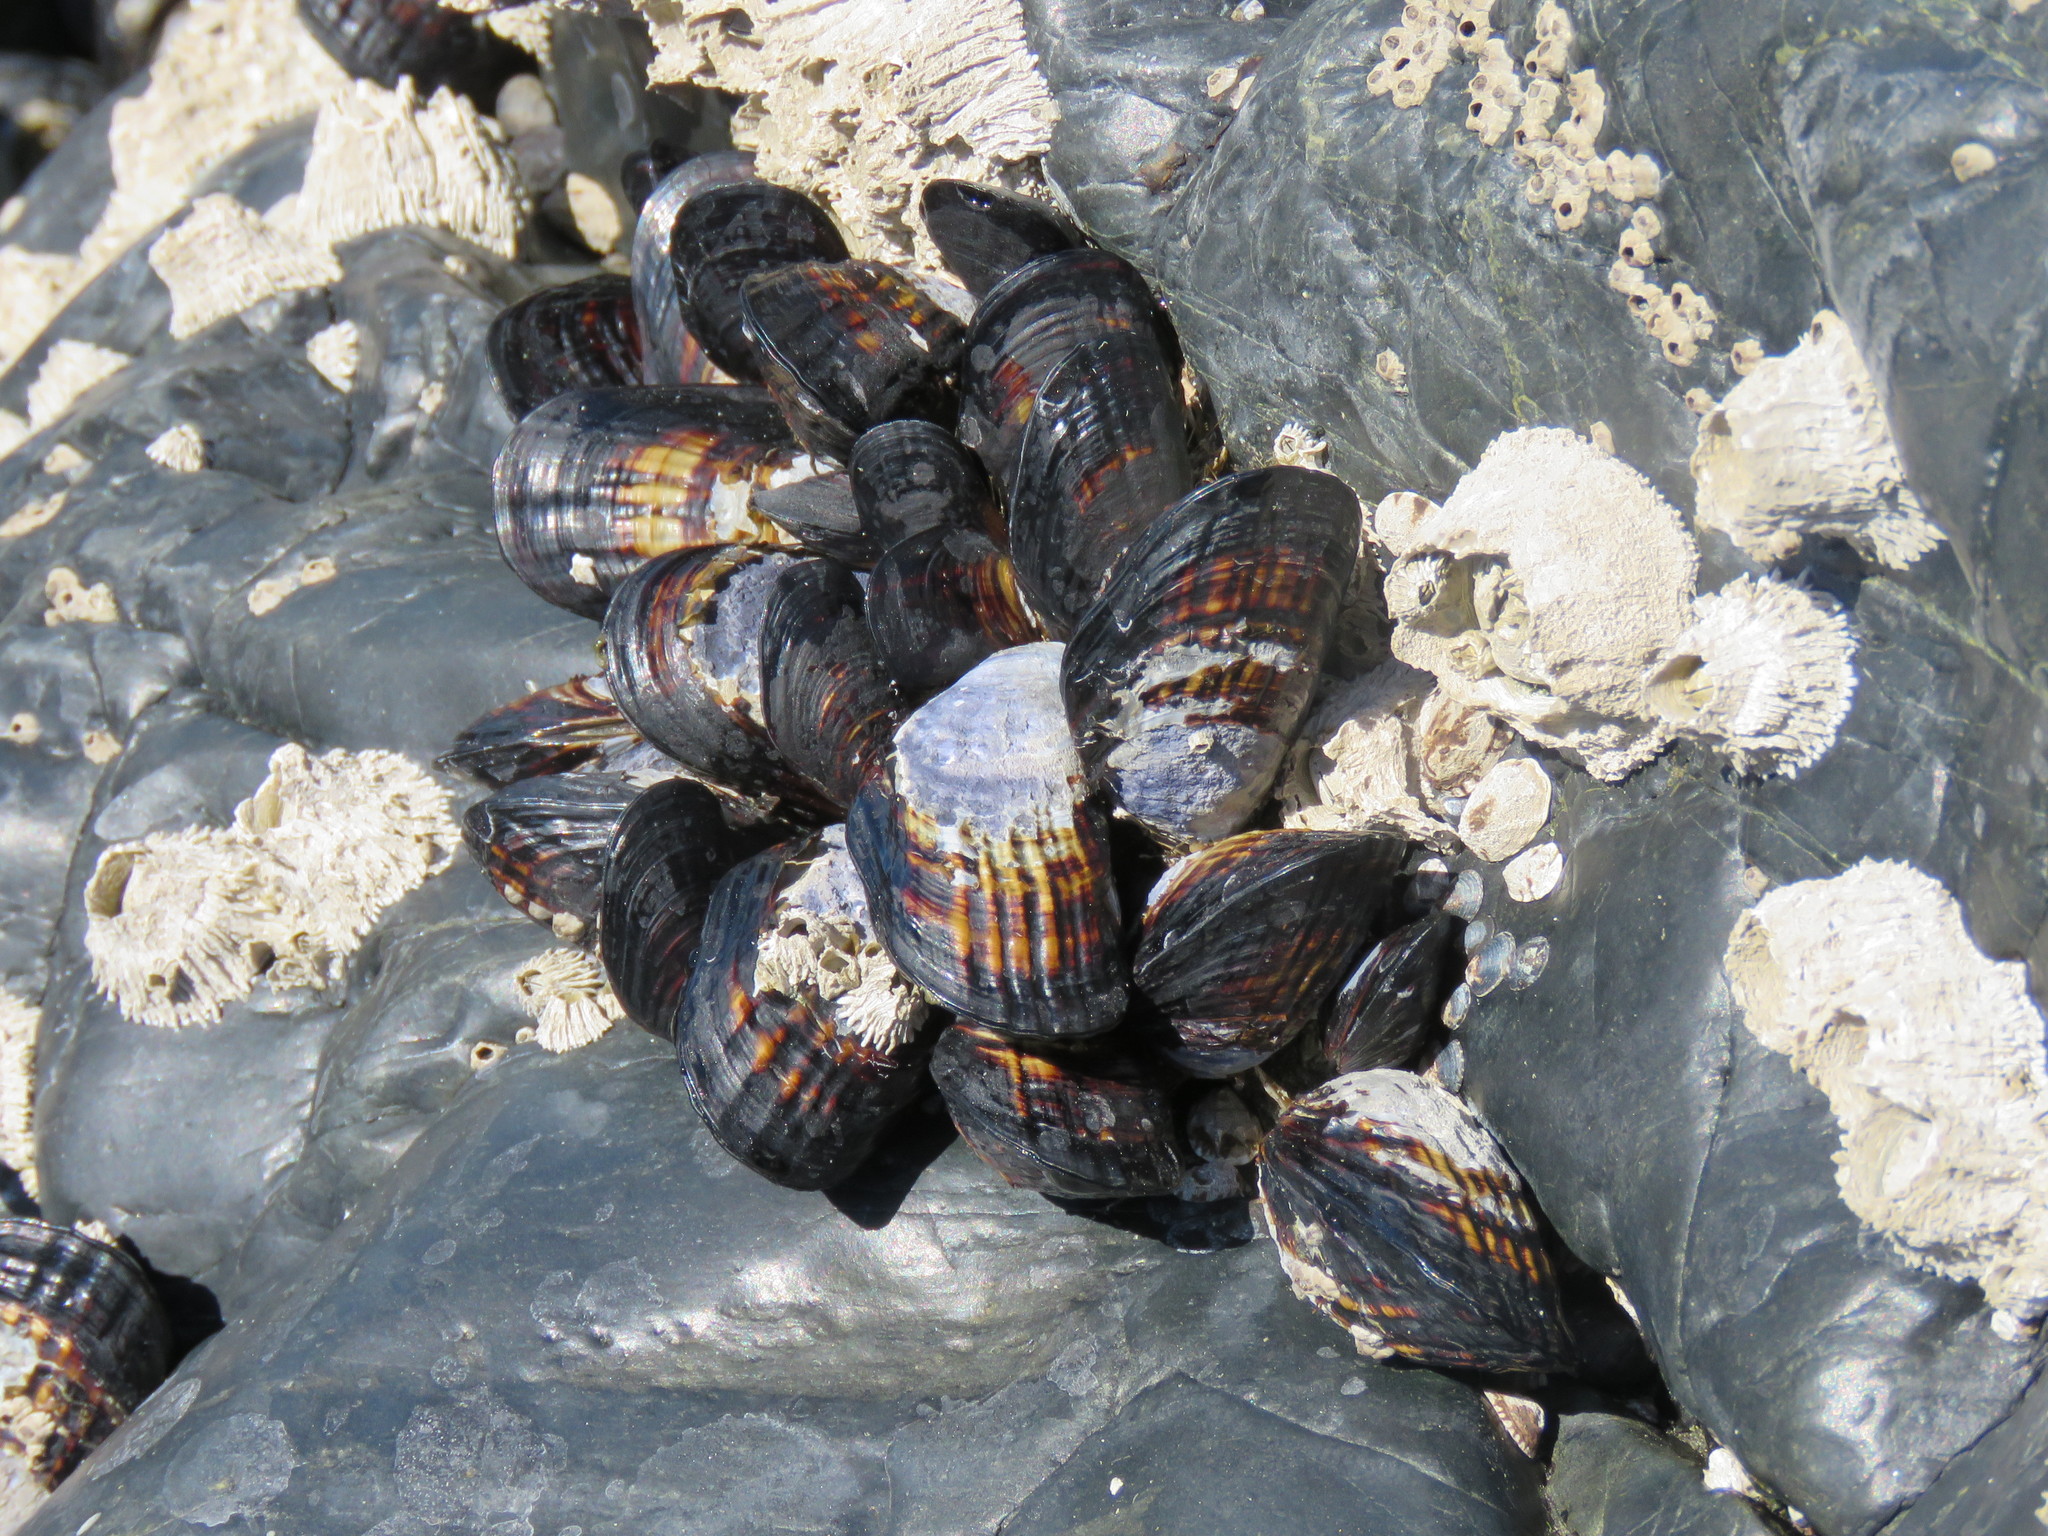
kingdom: Animalia
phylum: Mollusca
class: Bivalvia
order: Mytilida
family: Mytilidae
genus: Mytilus
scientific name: Mytilus californianus
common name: California mussel
